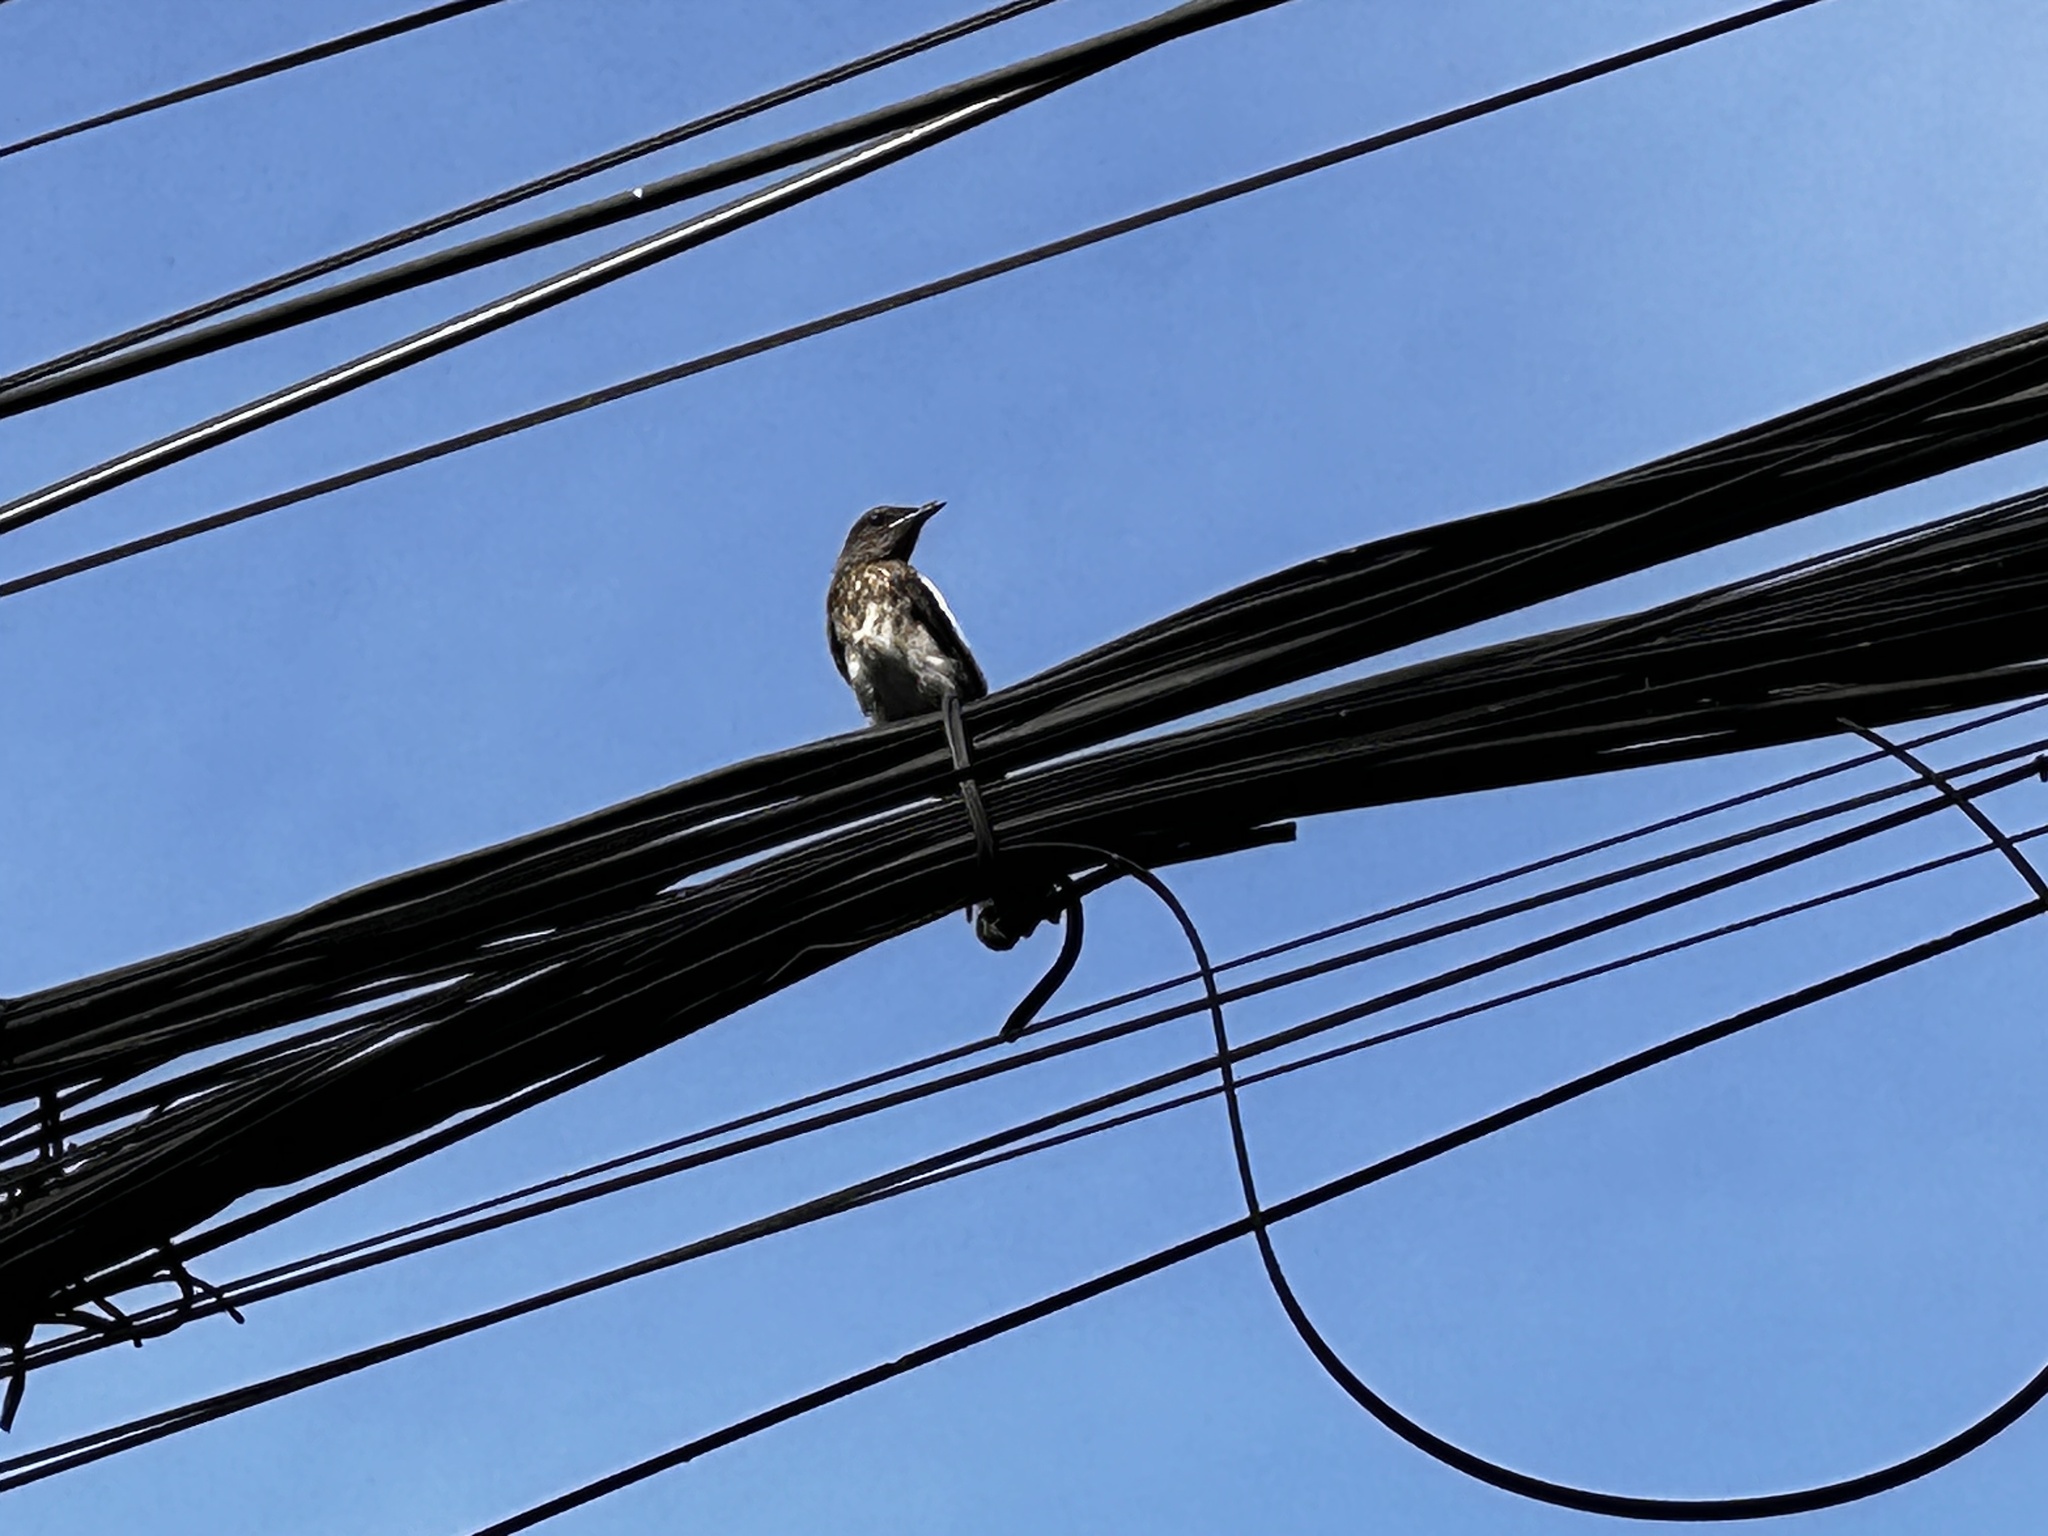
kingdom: Animalia
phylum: Chordata
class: Aves
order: Passeriformes
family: Muscicapidae
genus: Copsychus
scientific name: Copsychus saularis
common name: Oriental magpie-robin
